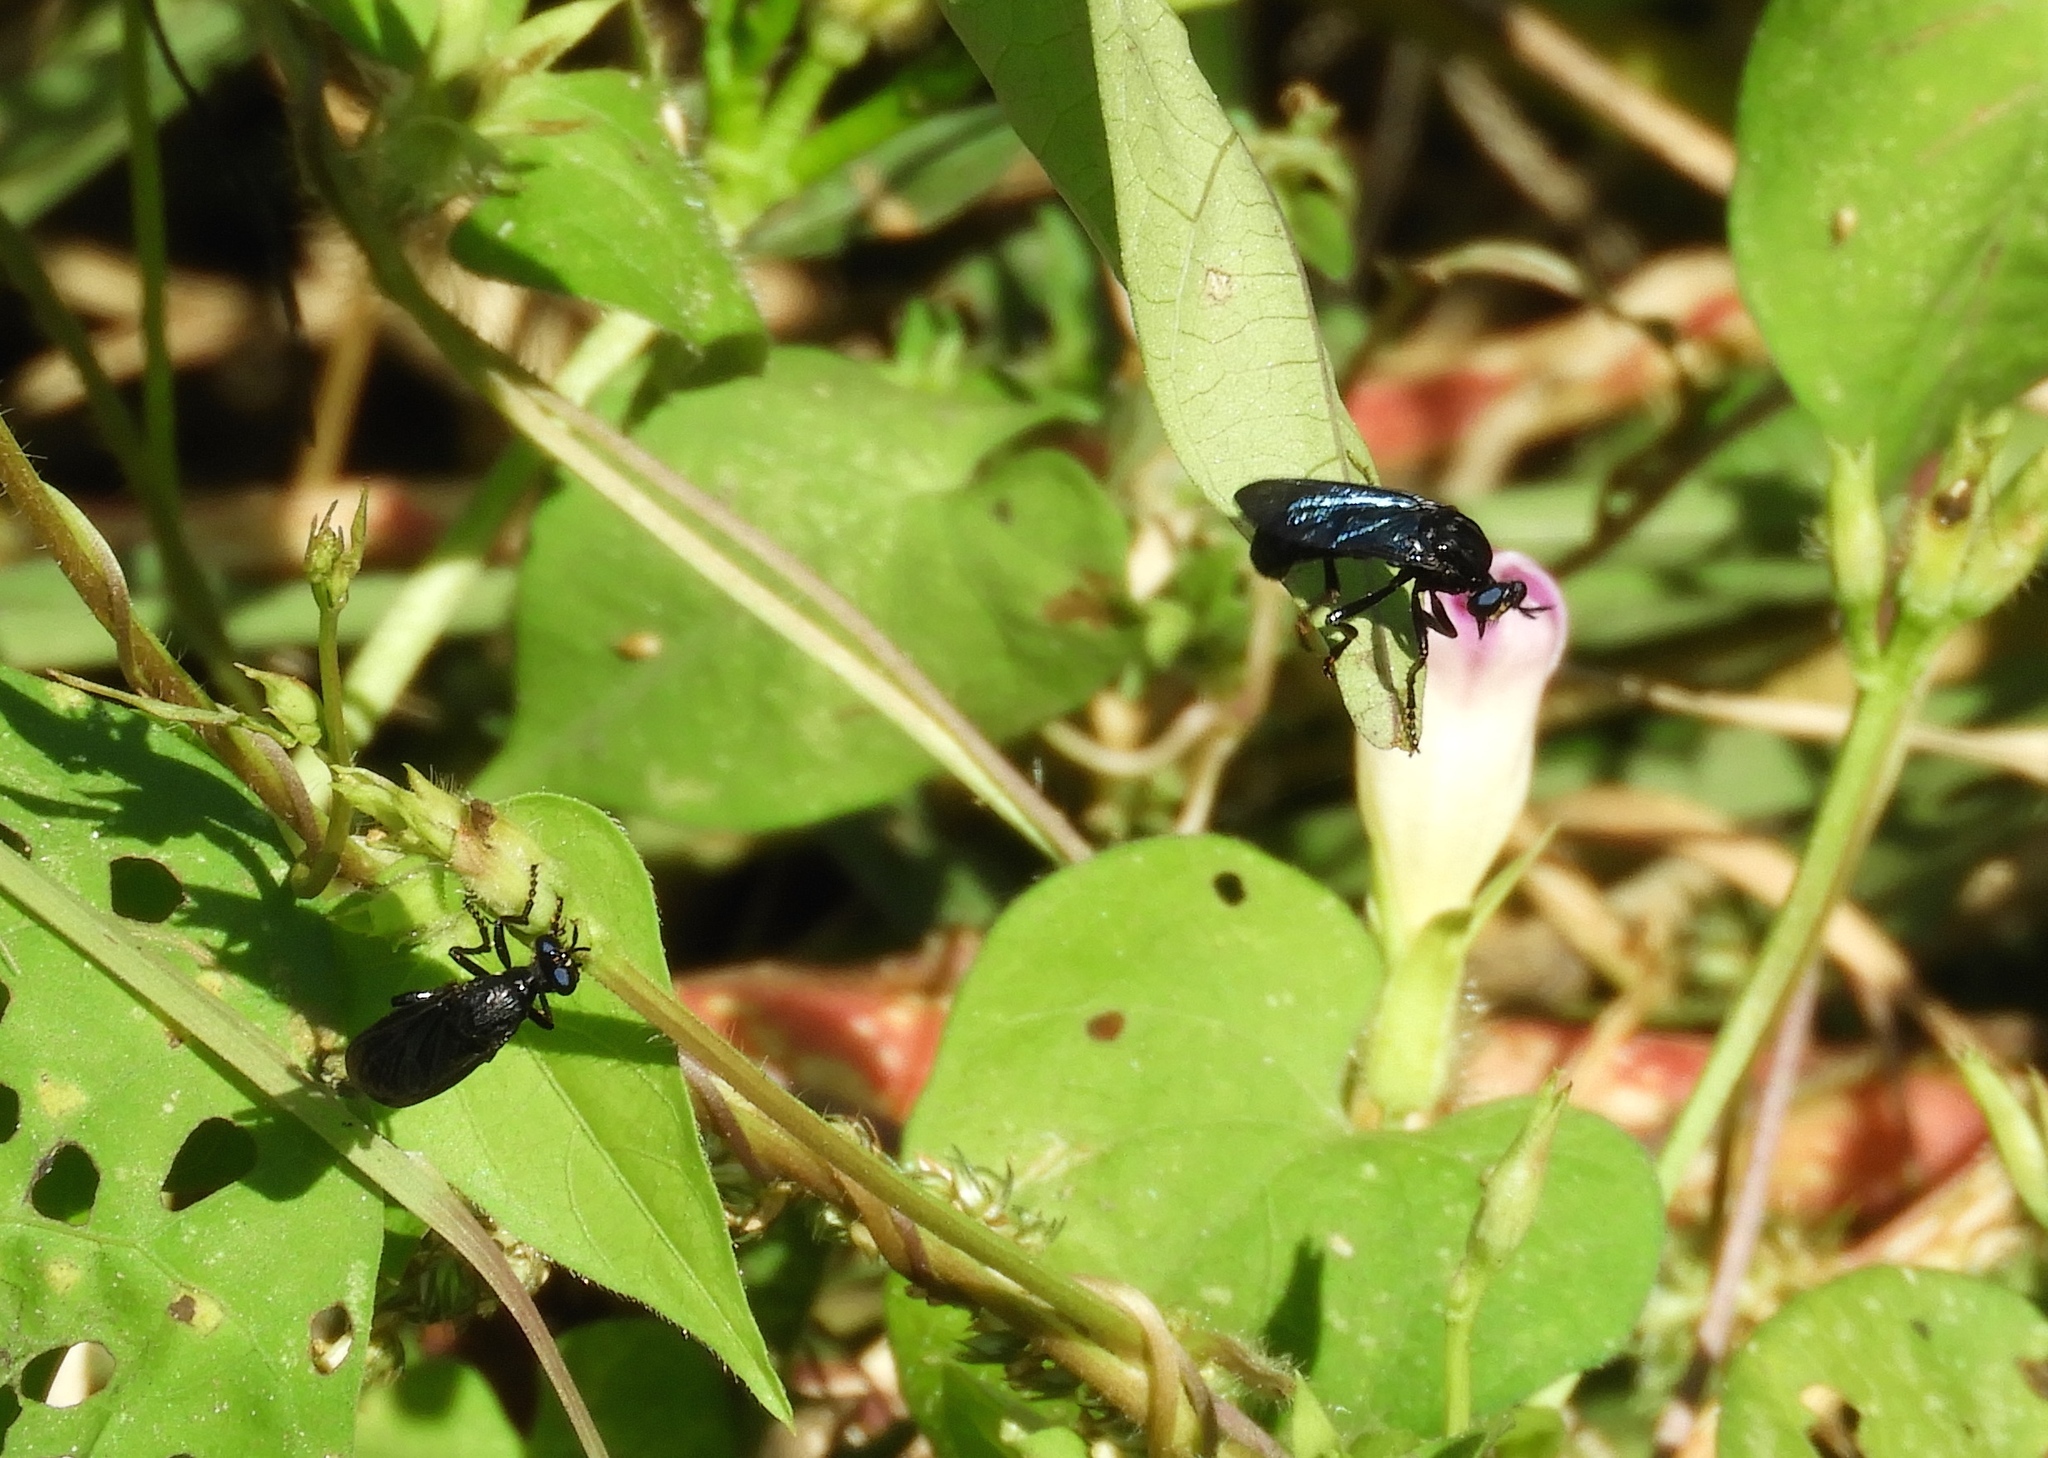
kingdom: Animalia
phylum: Arthropoda
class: Insecta
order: Diptera
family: Asilidae
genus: Saropogon
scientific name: Saropogon
